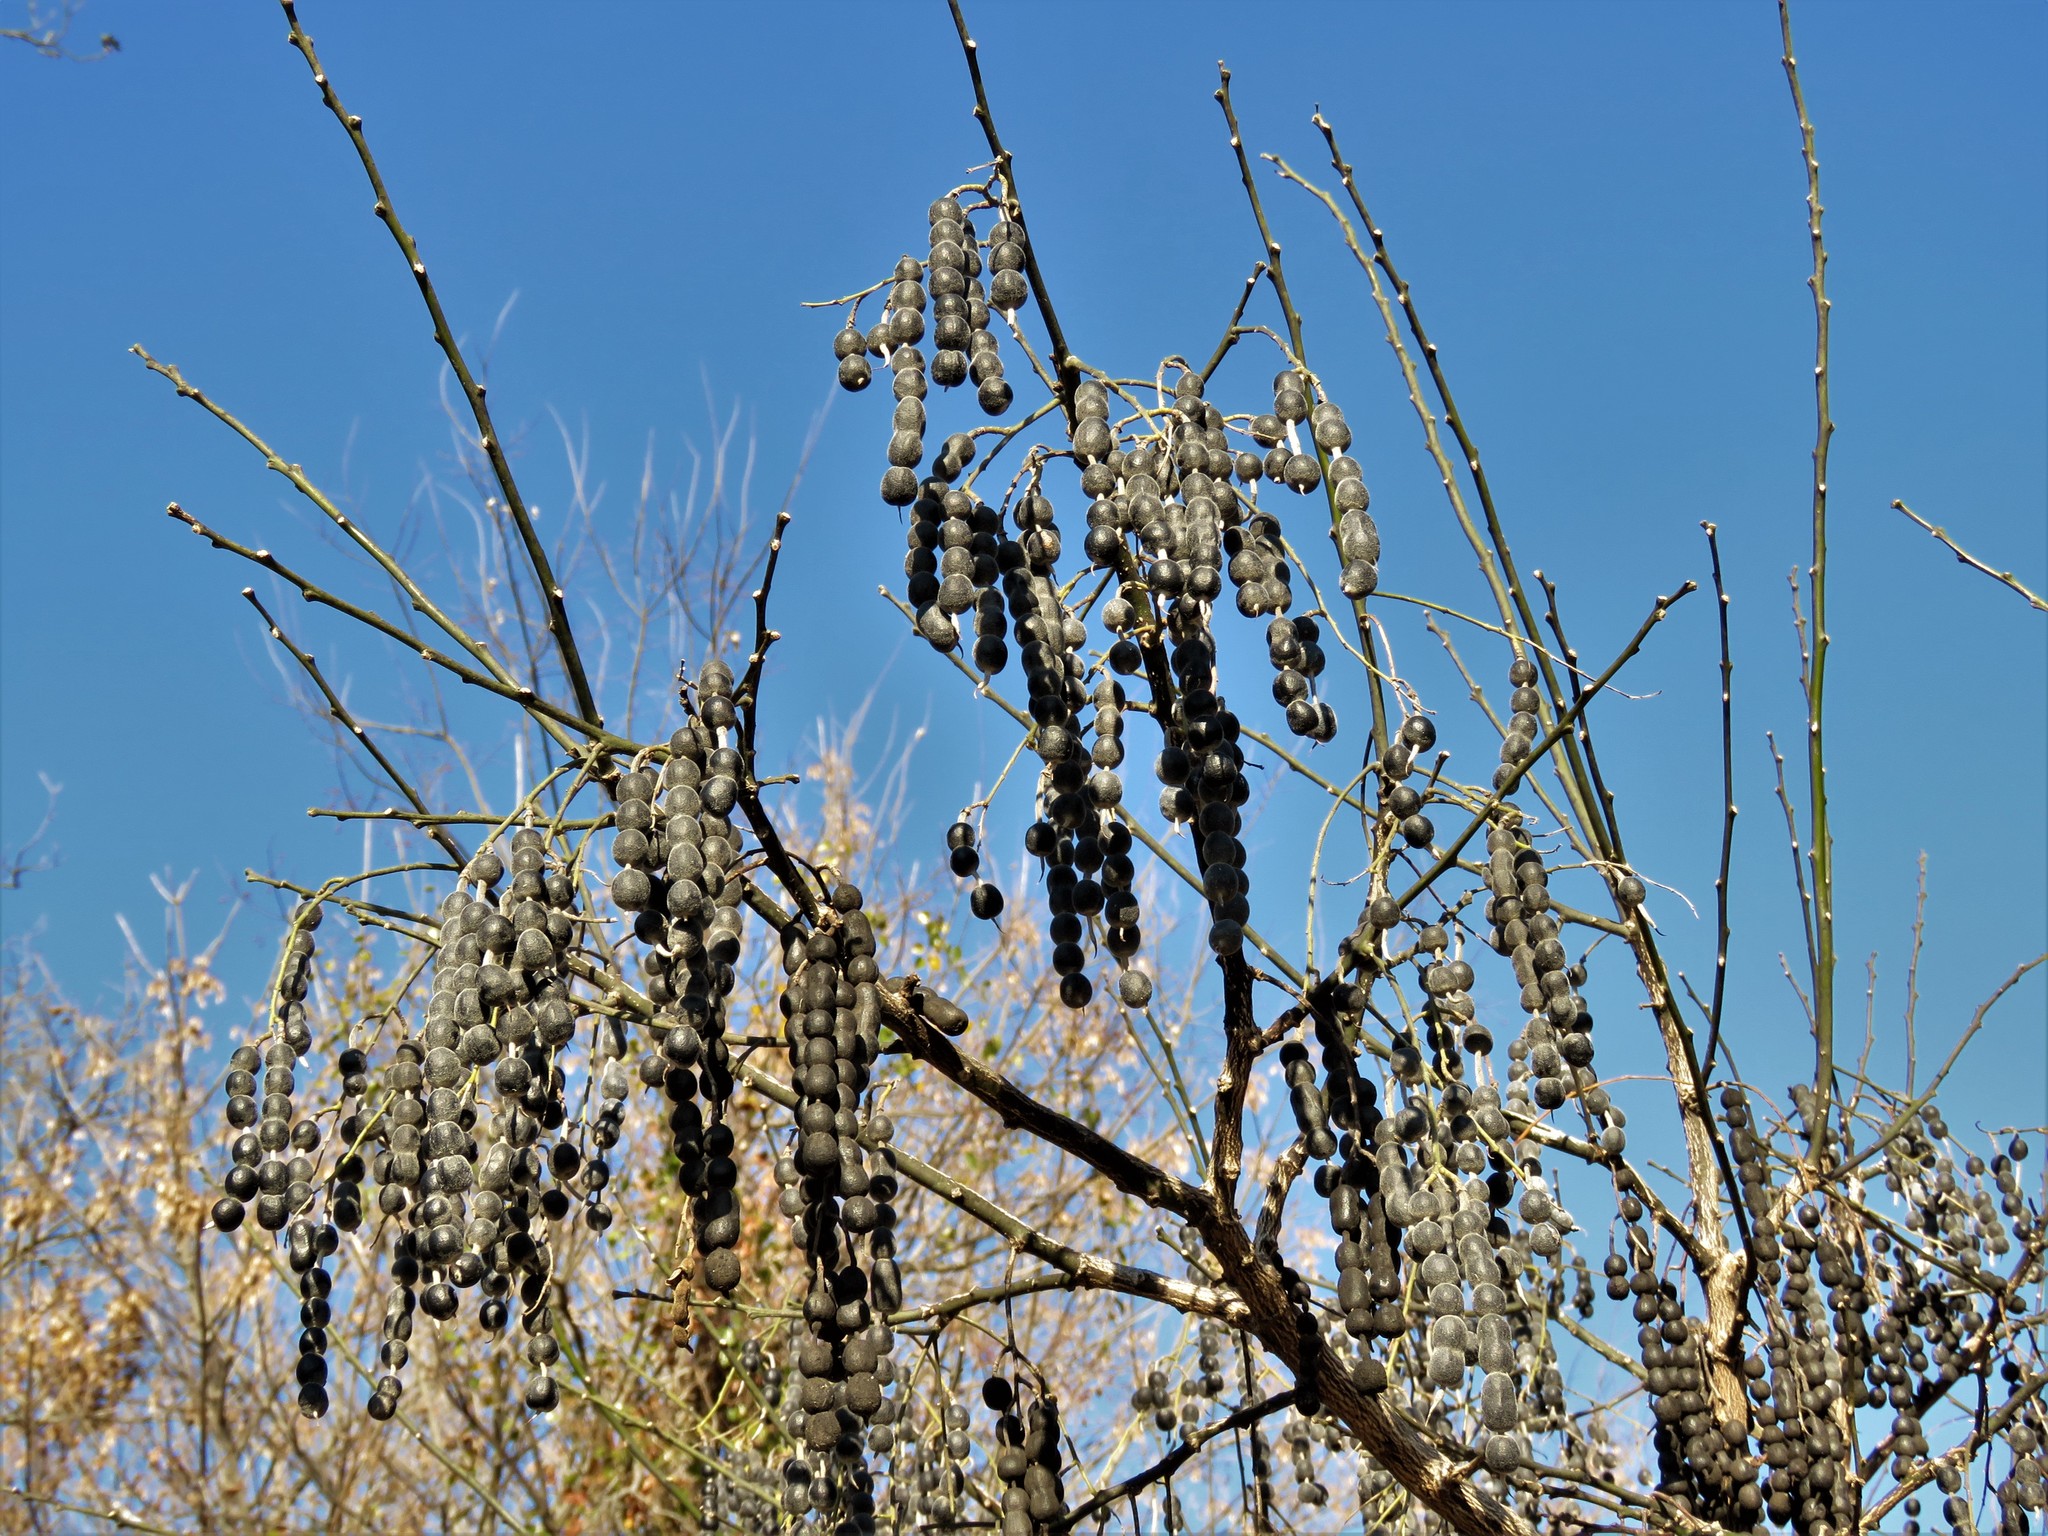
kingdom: Plantae
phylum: Tracheophyta
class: Magnoliopsida
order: Fabales
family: Fabaceae
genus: Styphnolobium
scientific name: Styphnolobium affine
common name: Texas sophora
